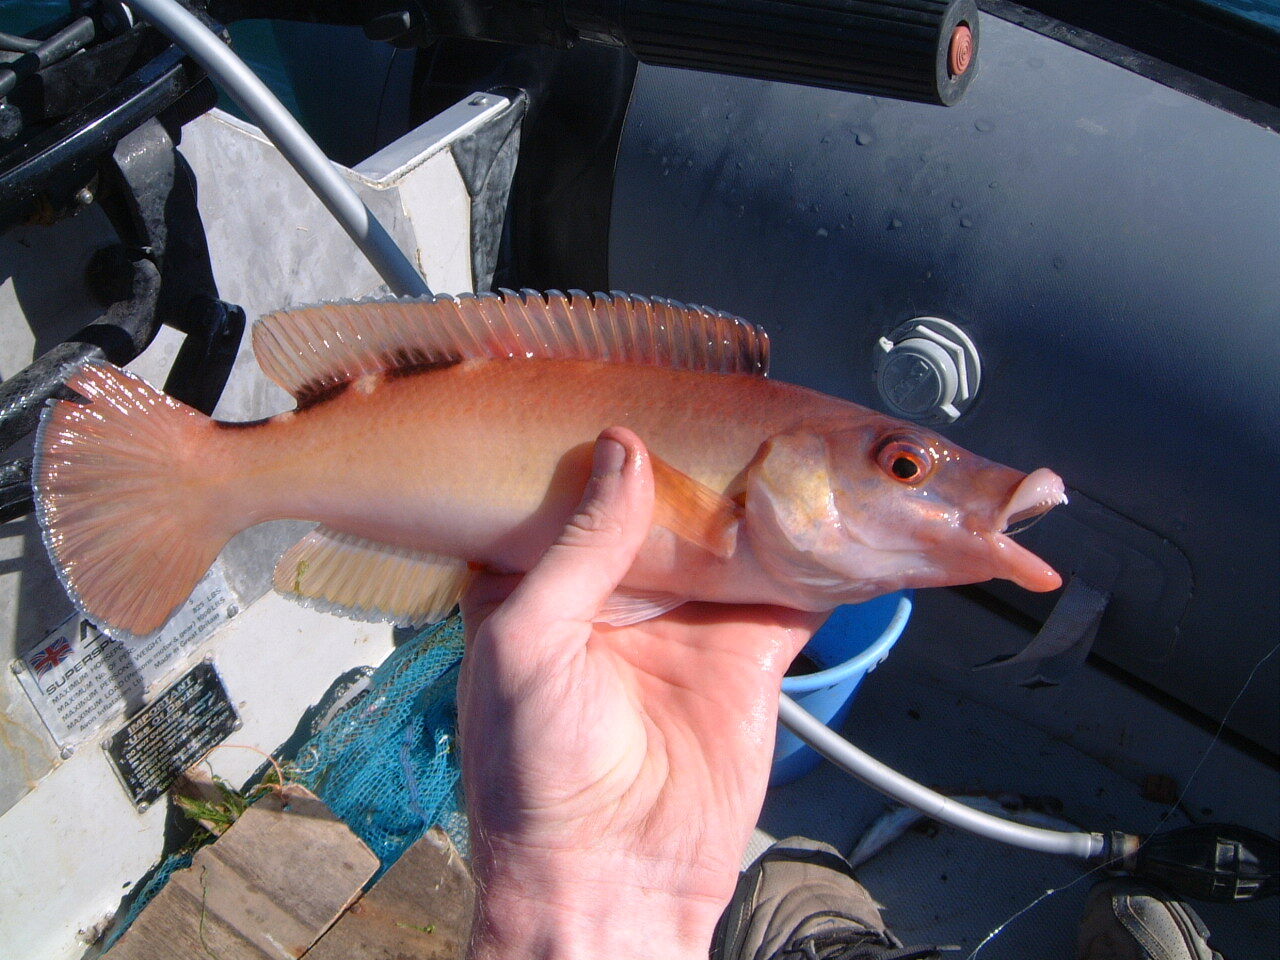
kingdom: Animalia
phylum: Chordata
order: Perciformes
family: Labridae
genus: Labrus
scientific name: Labrus mixtus
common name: Cuckoo wrasse
